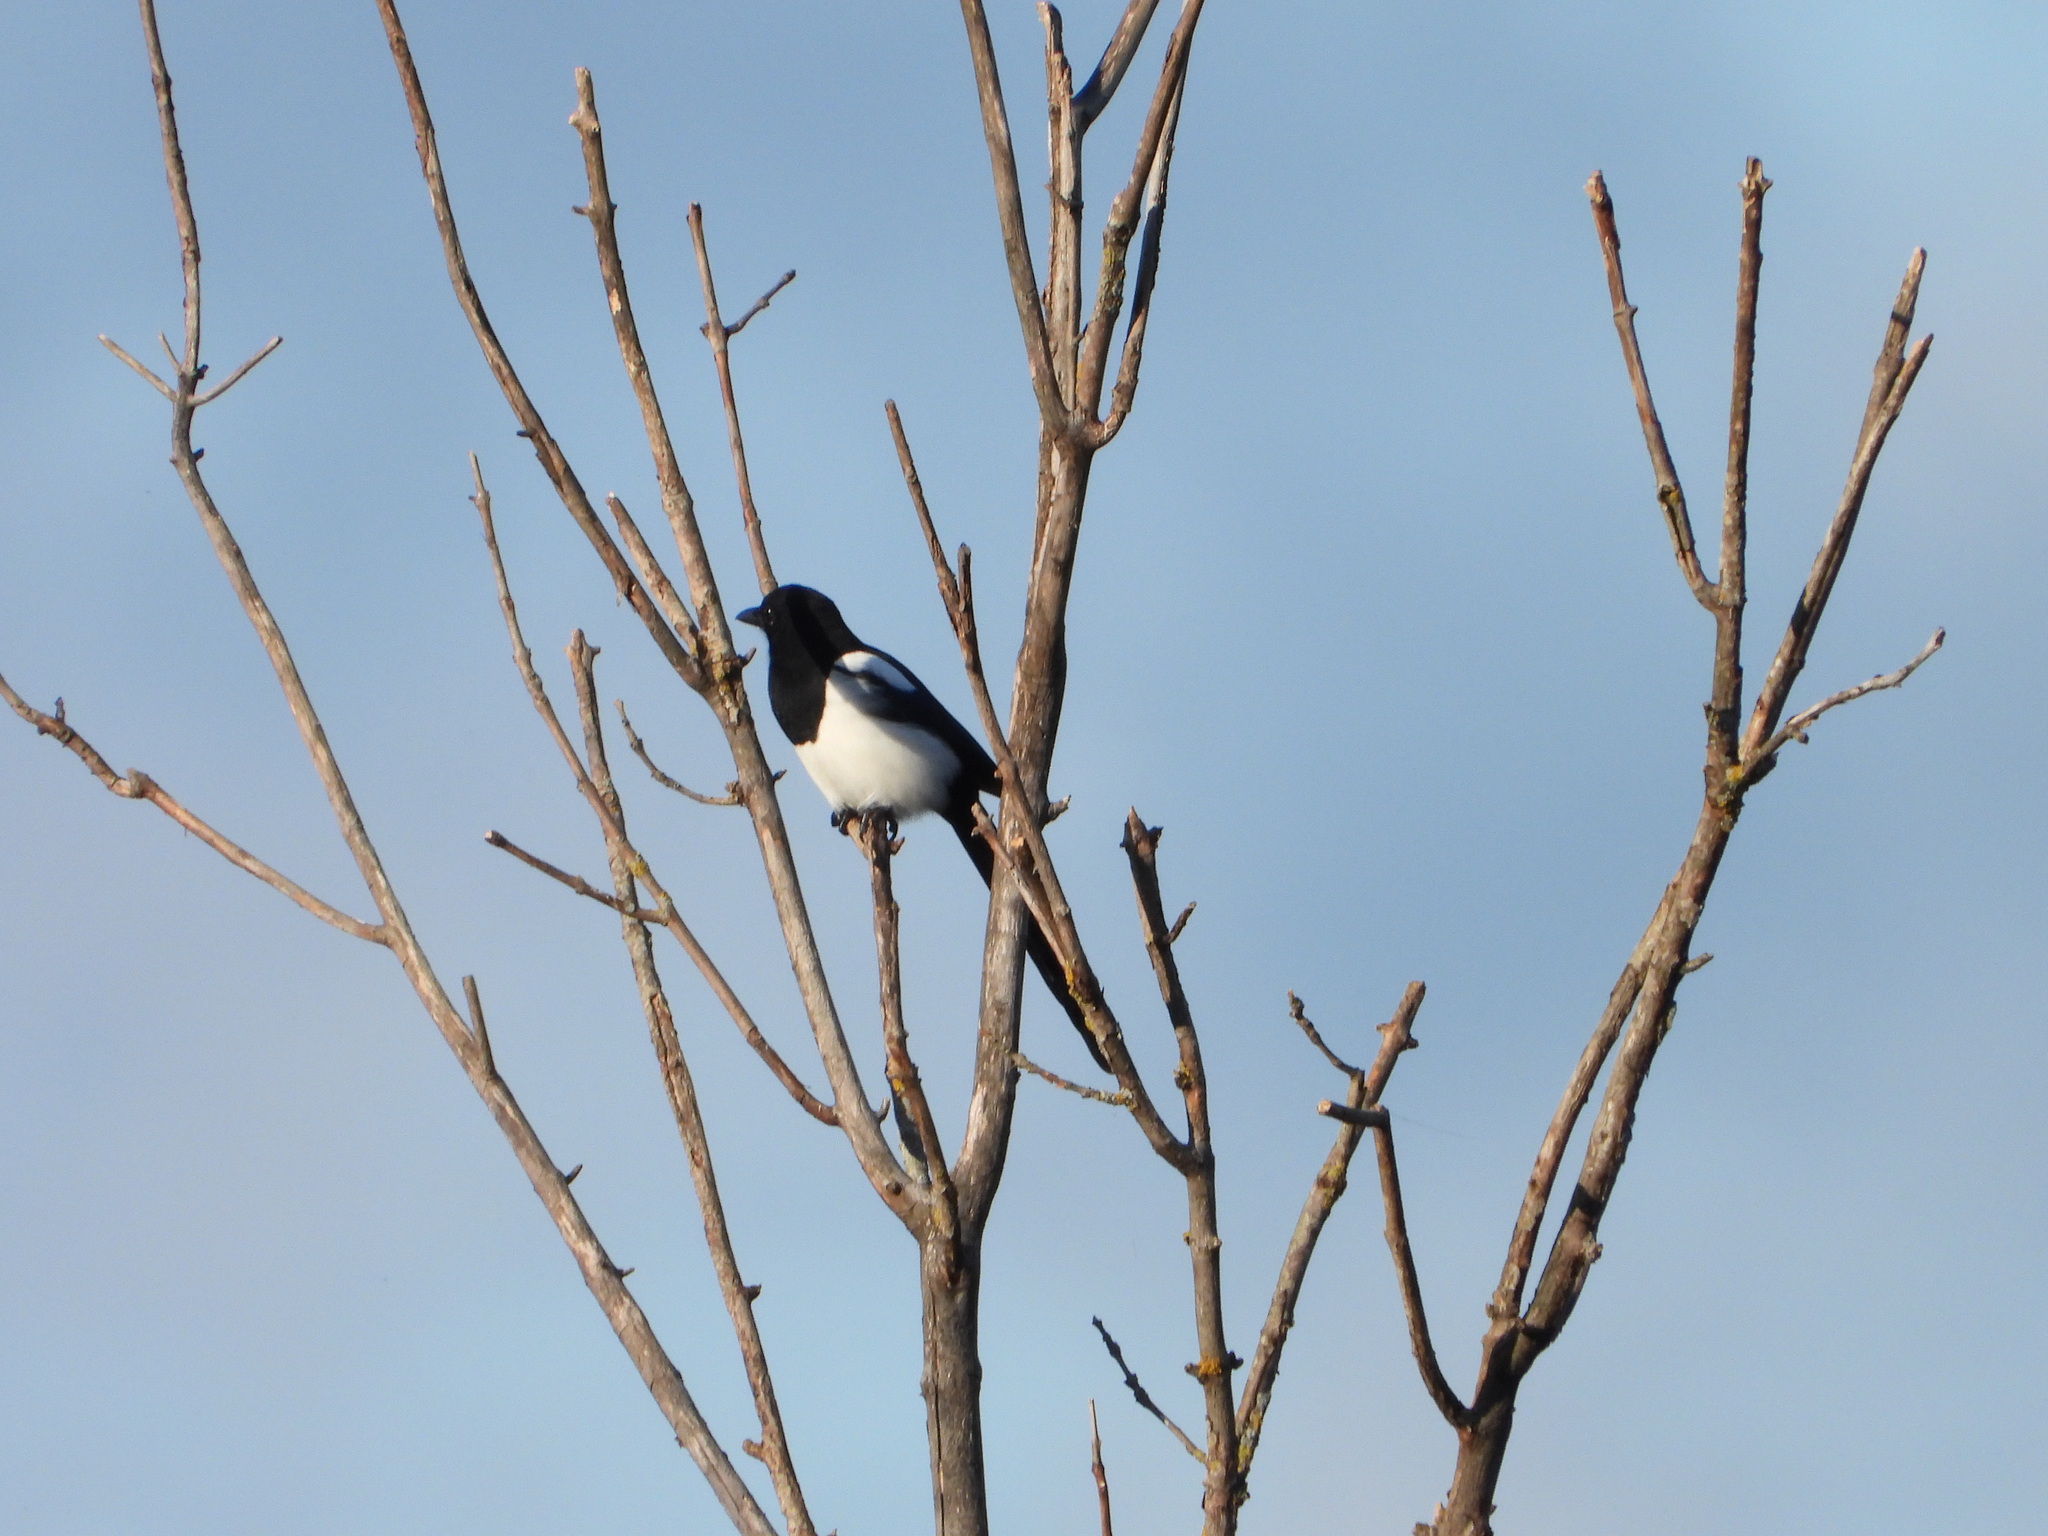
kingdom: Animalia
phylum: Chordata
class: Aves
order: Passeriformes
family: Corvidae
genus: Pica
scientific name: Pica pica
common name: Eurasian magpie
